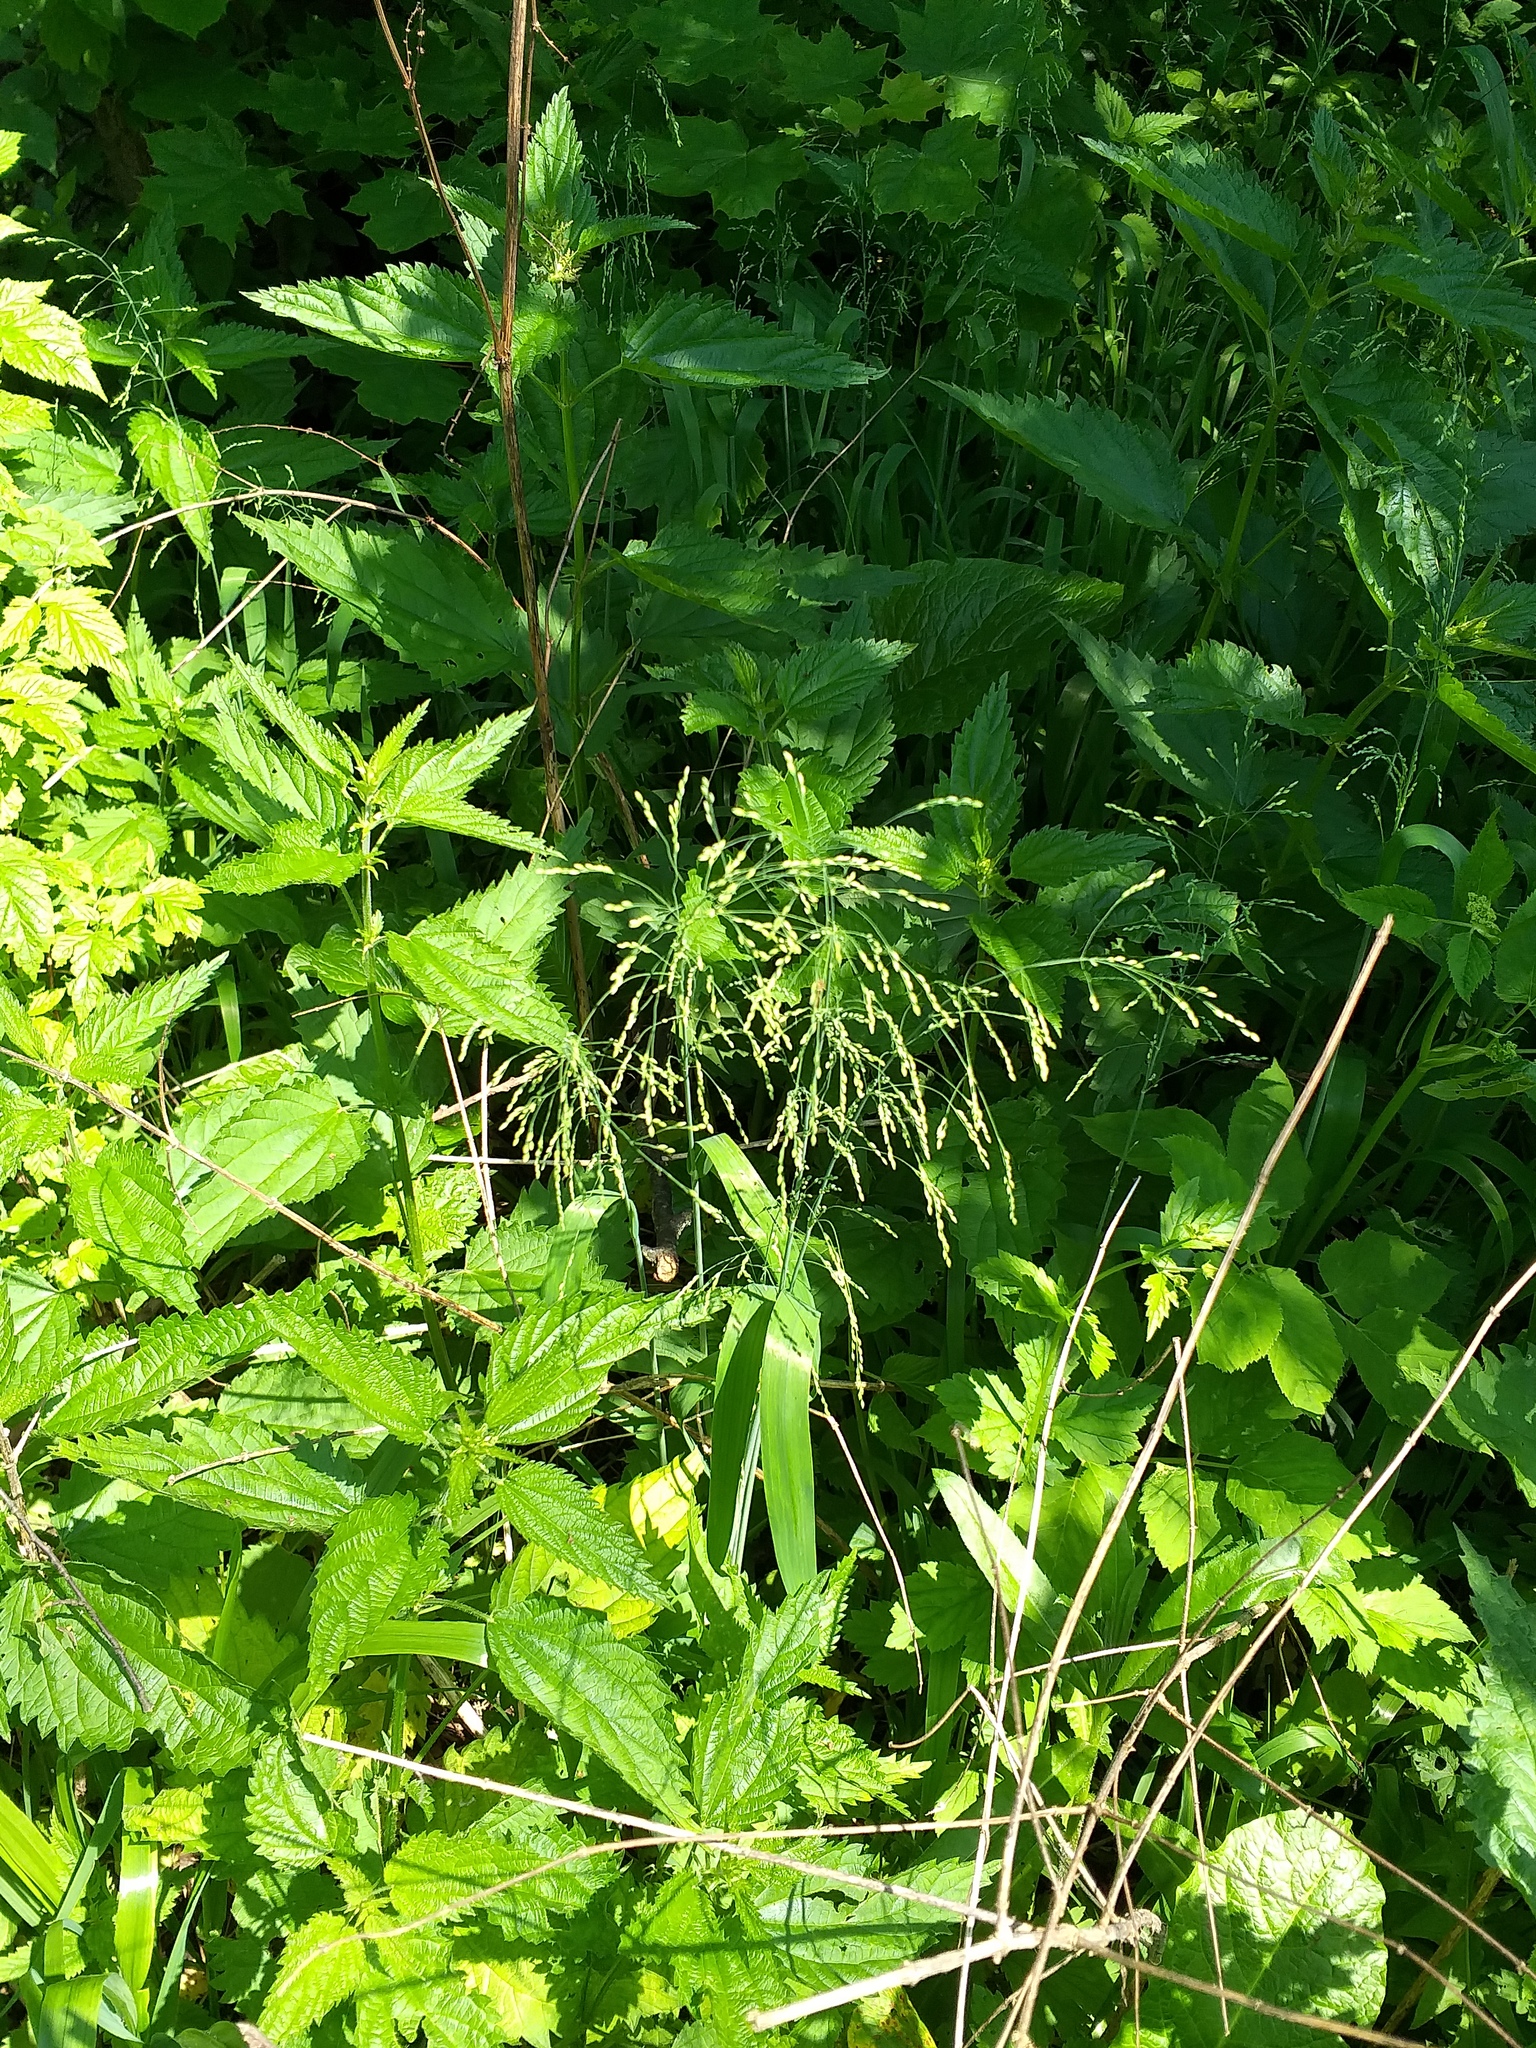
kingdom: Plantae
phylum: Tracheophyta
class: Liliopsida
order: Poales
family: Poaceae
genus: Milium
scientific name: Milium effusum
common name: Wood millet
